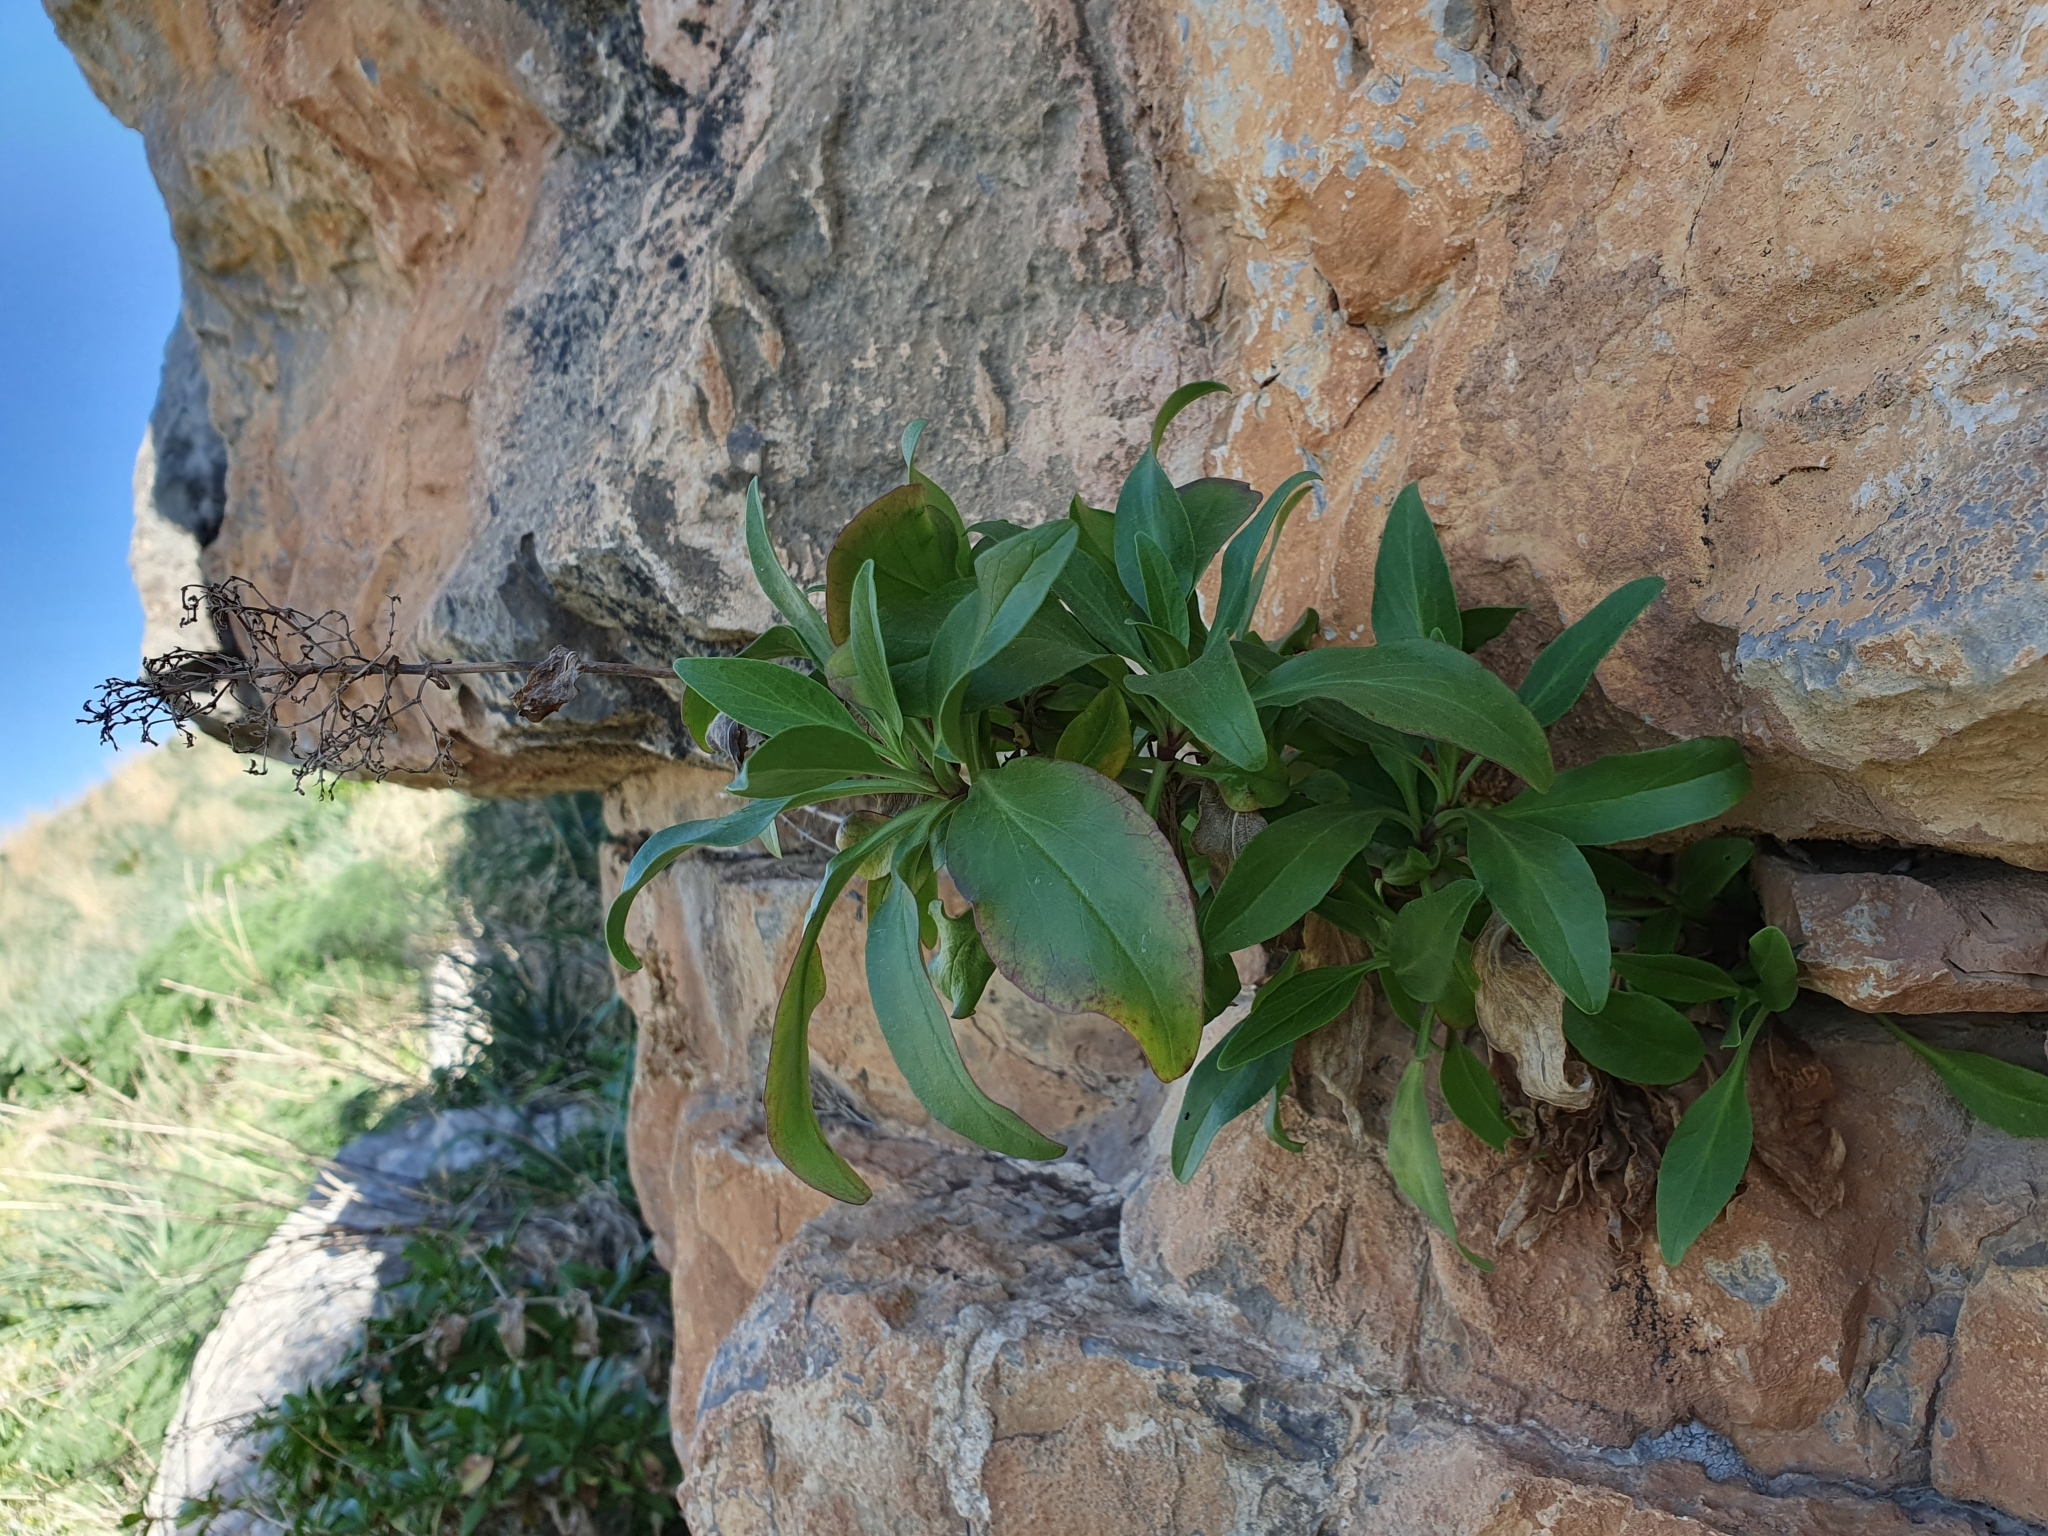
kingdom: Plantae
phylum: Tracheophyta
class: Magnoliopsida
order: Dipsacales
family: Caprifoliaceae
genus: Centranthus
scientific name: Centranthus ruber
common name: Red valerian
